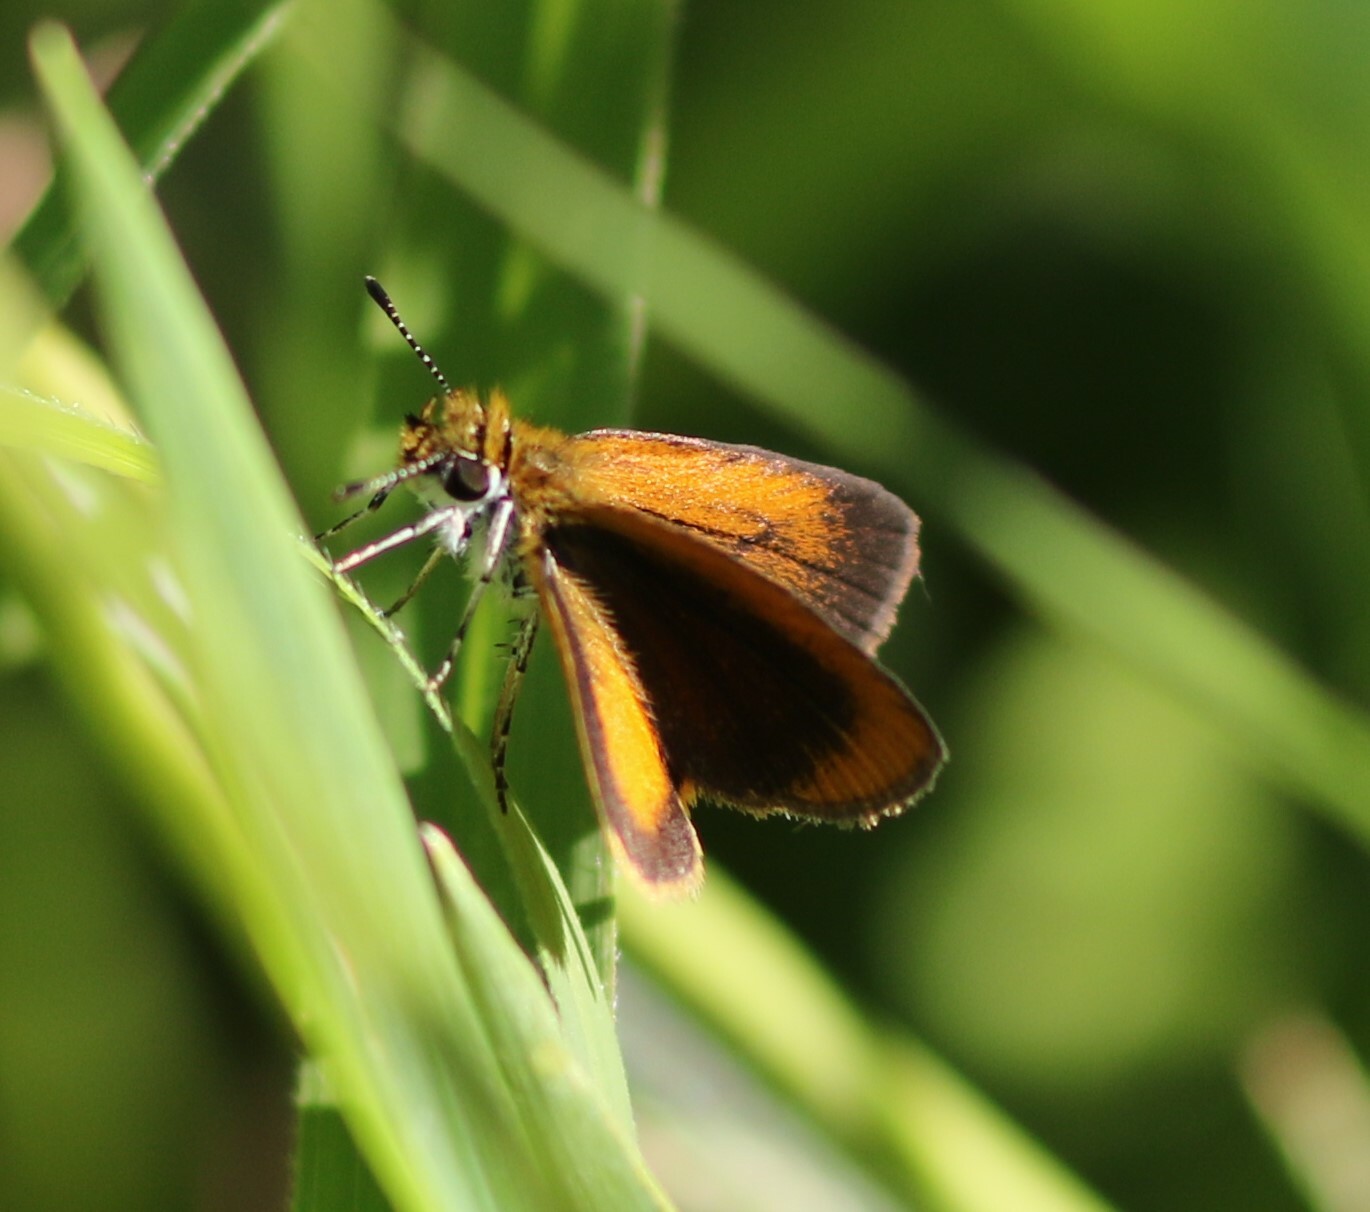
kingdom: Animalia
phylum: Arthropoda
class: Insecta
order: Lepidoptera
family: Hesperiidae
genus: Ancyloxypha
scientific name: Ancyloxypha numitor
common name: Least skipper
